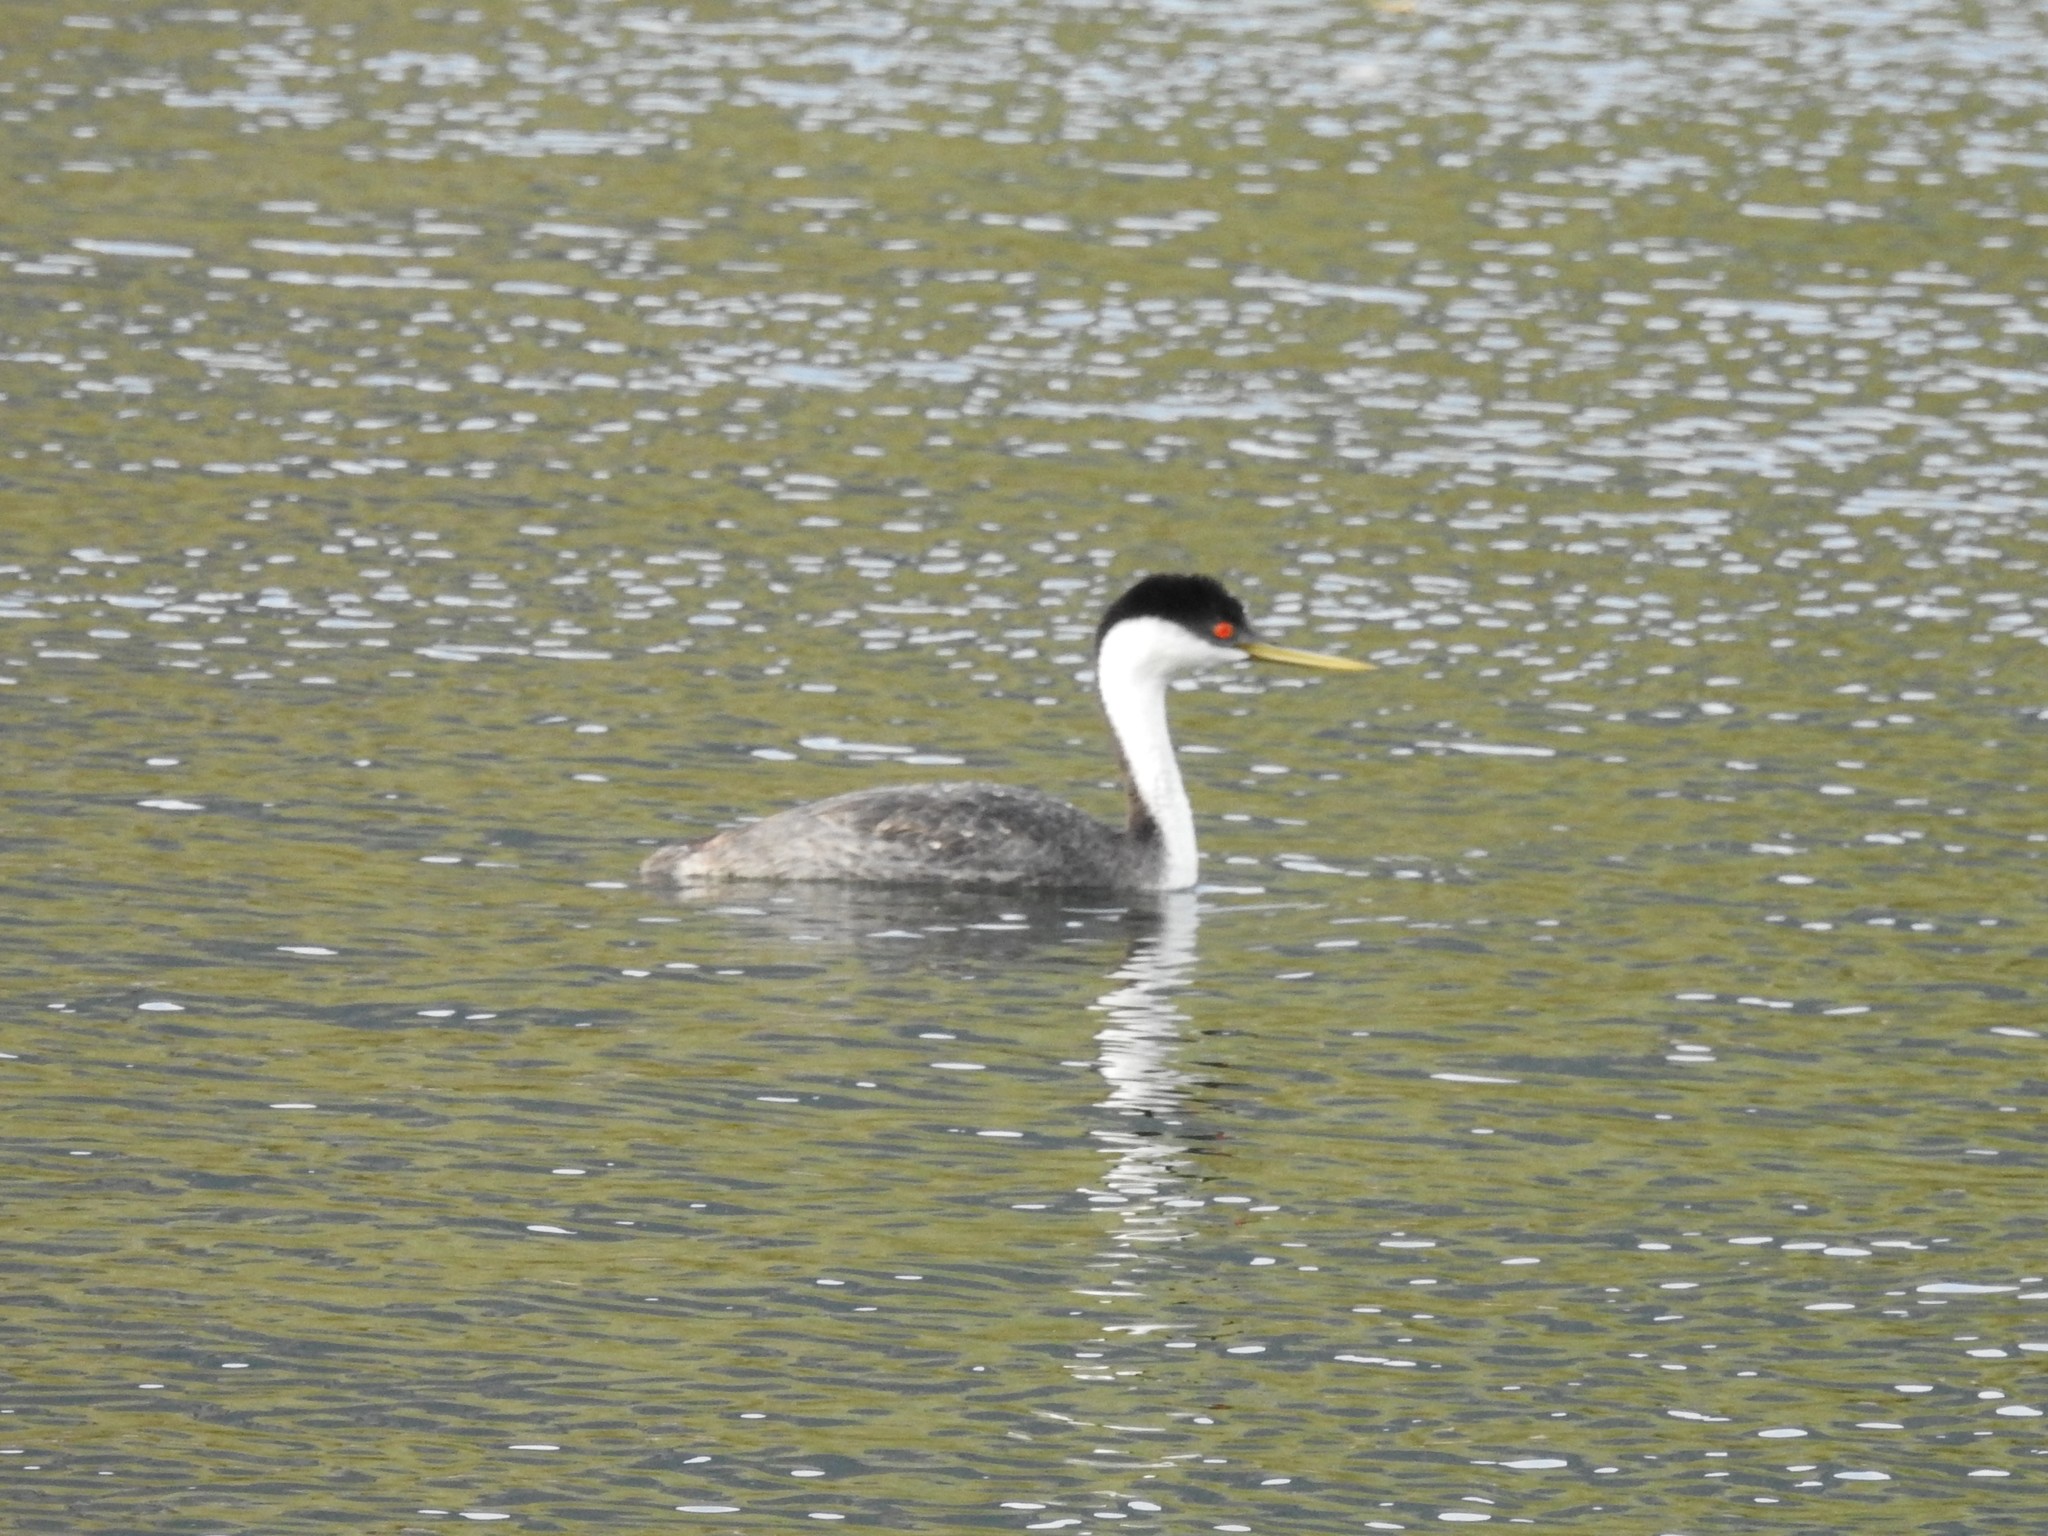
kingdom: Animalia
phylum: Chordata
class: Aves
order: Podicipediformes
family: Podicipedidae
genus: Aechmophorus
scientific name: Aechmophorus occidentalis
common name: Western grebe
